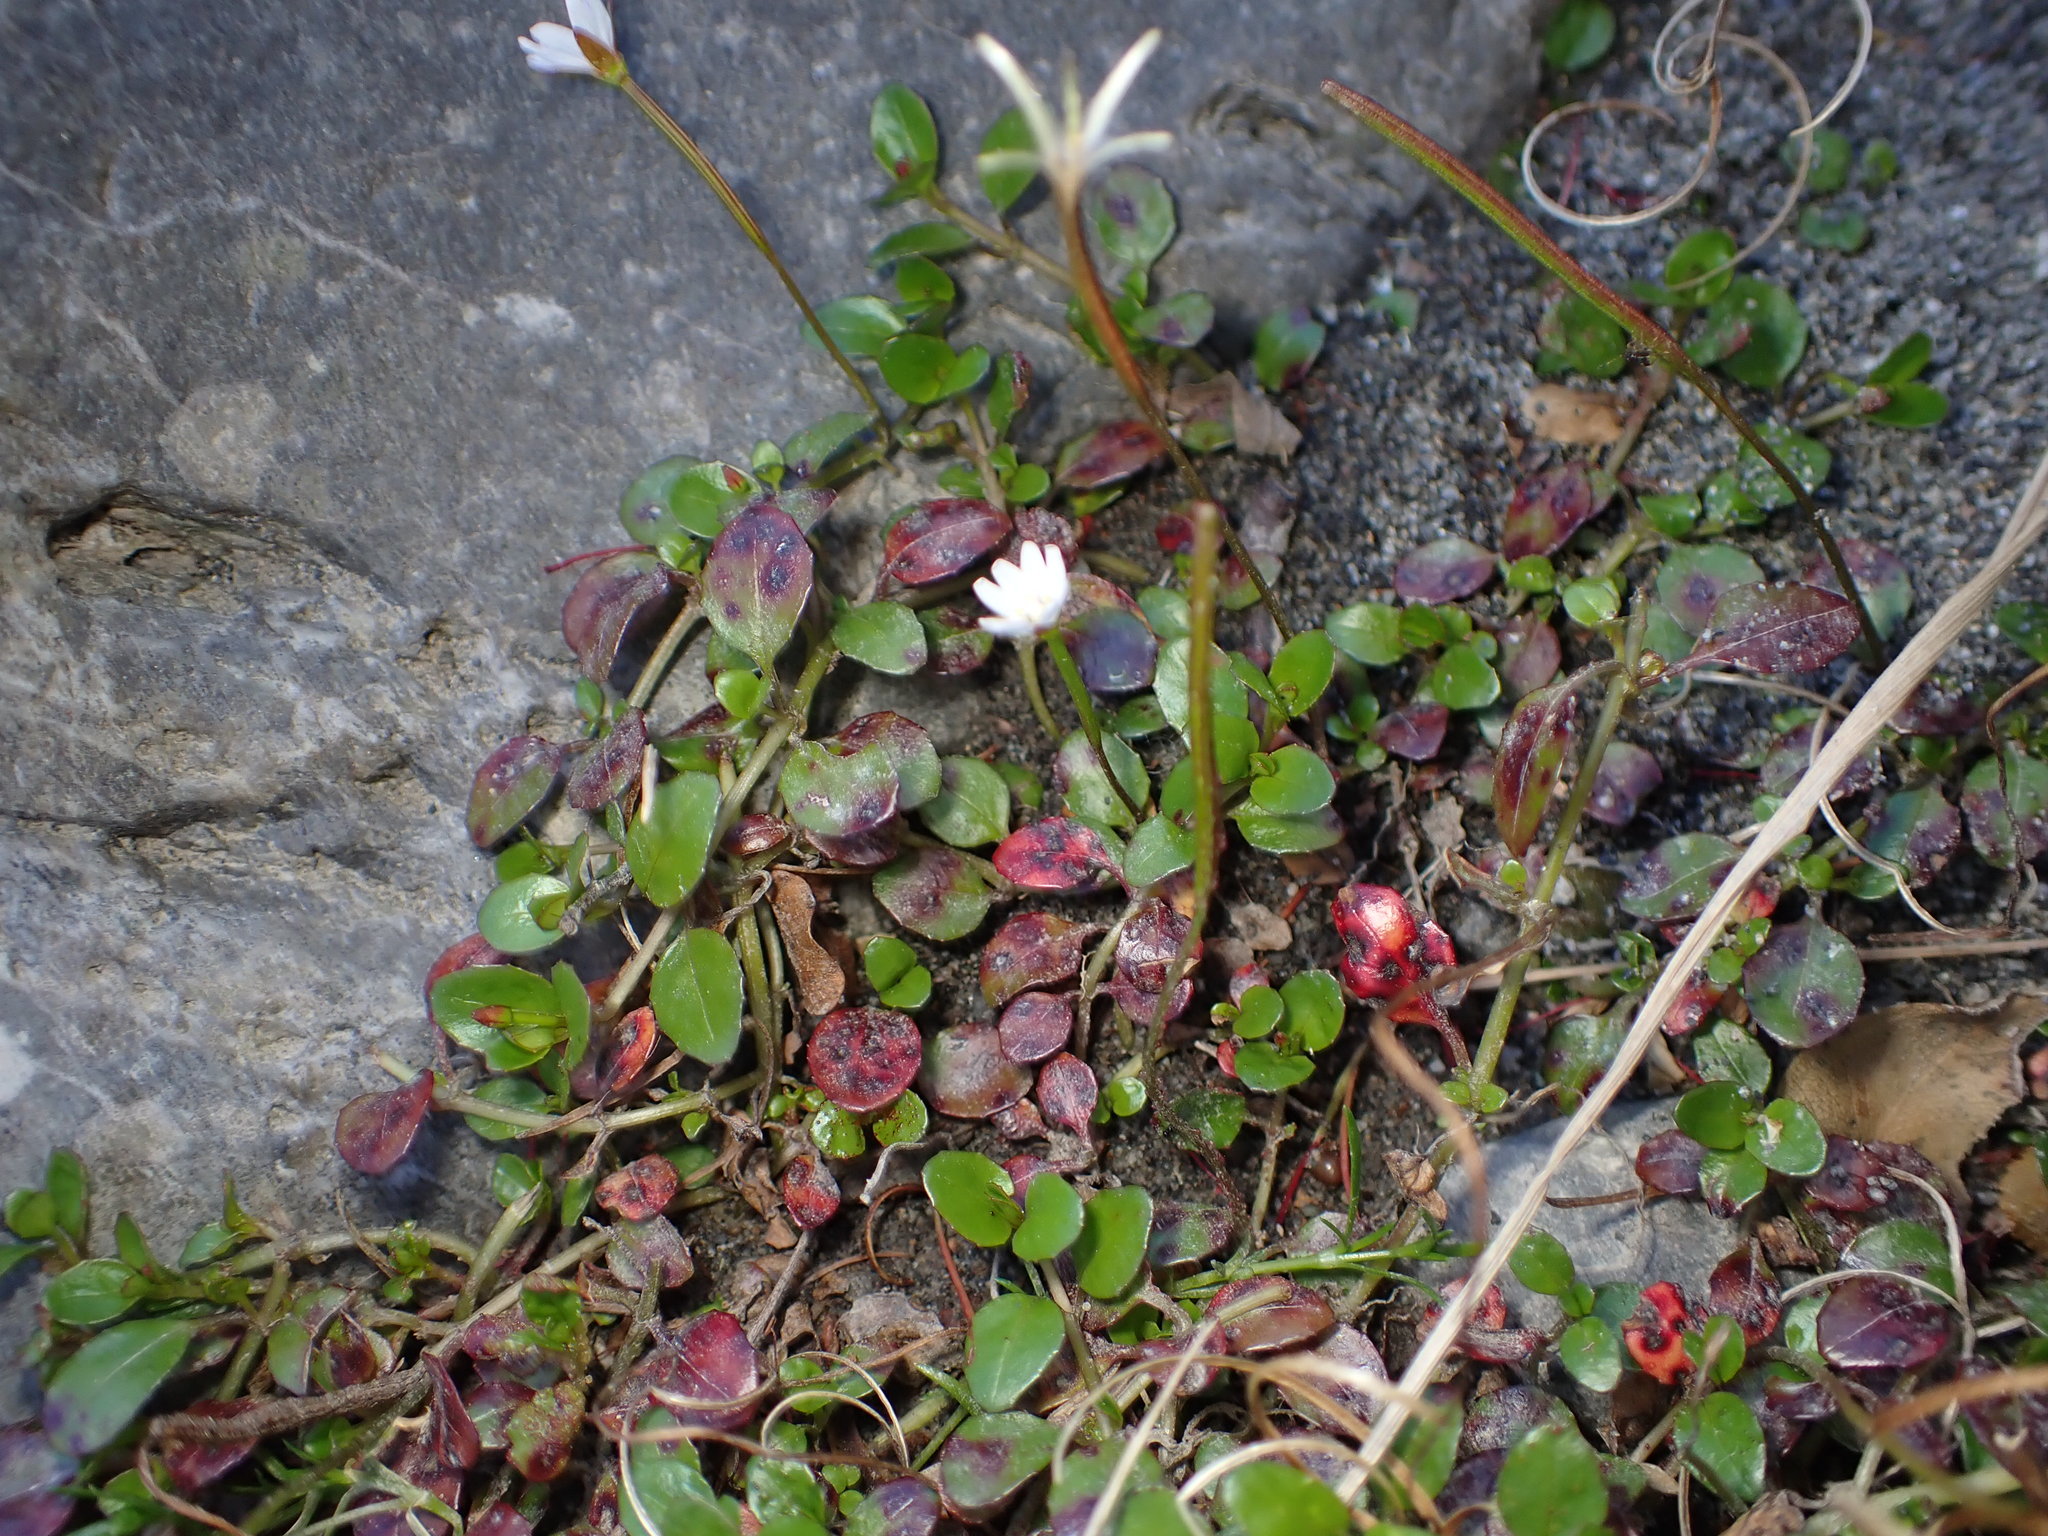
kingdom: Plantae
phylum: Tracheophyta
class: Magnoliopsida
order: Myrtales
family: Onagraceae
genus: Epilobium
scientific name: Epilobium brunnescens
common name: New zealand willowherb
